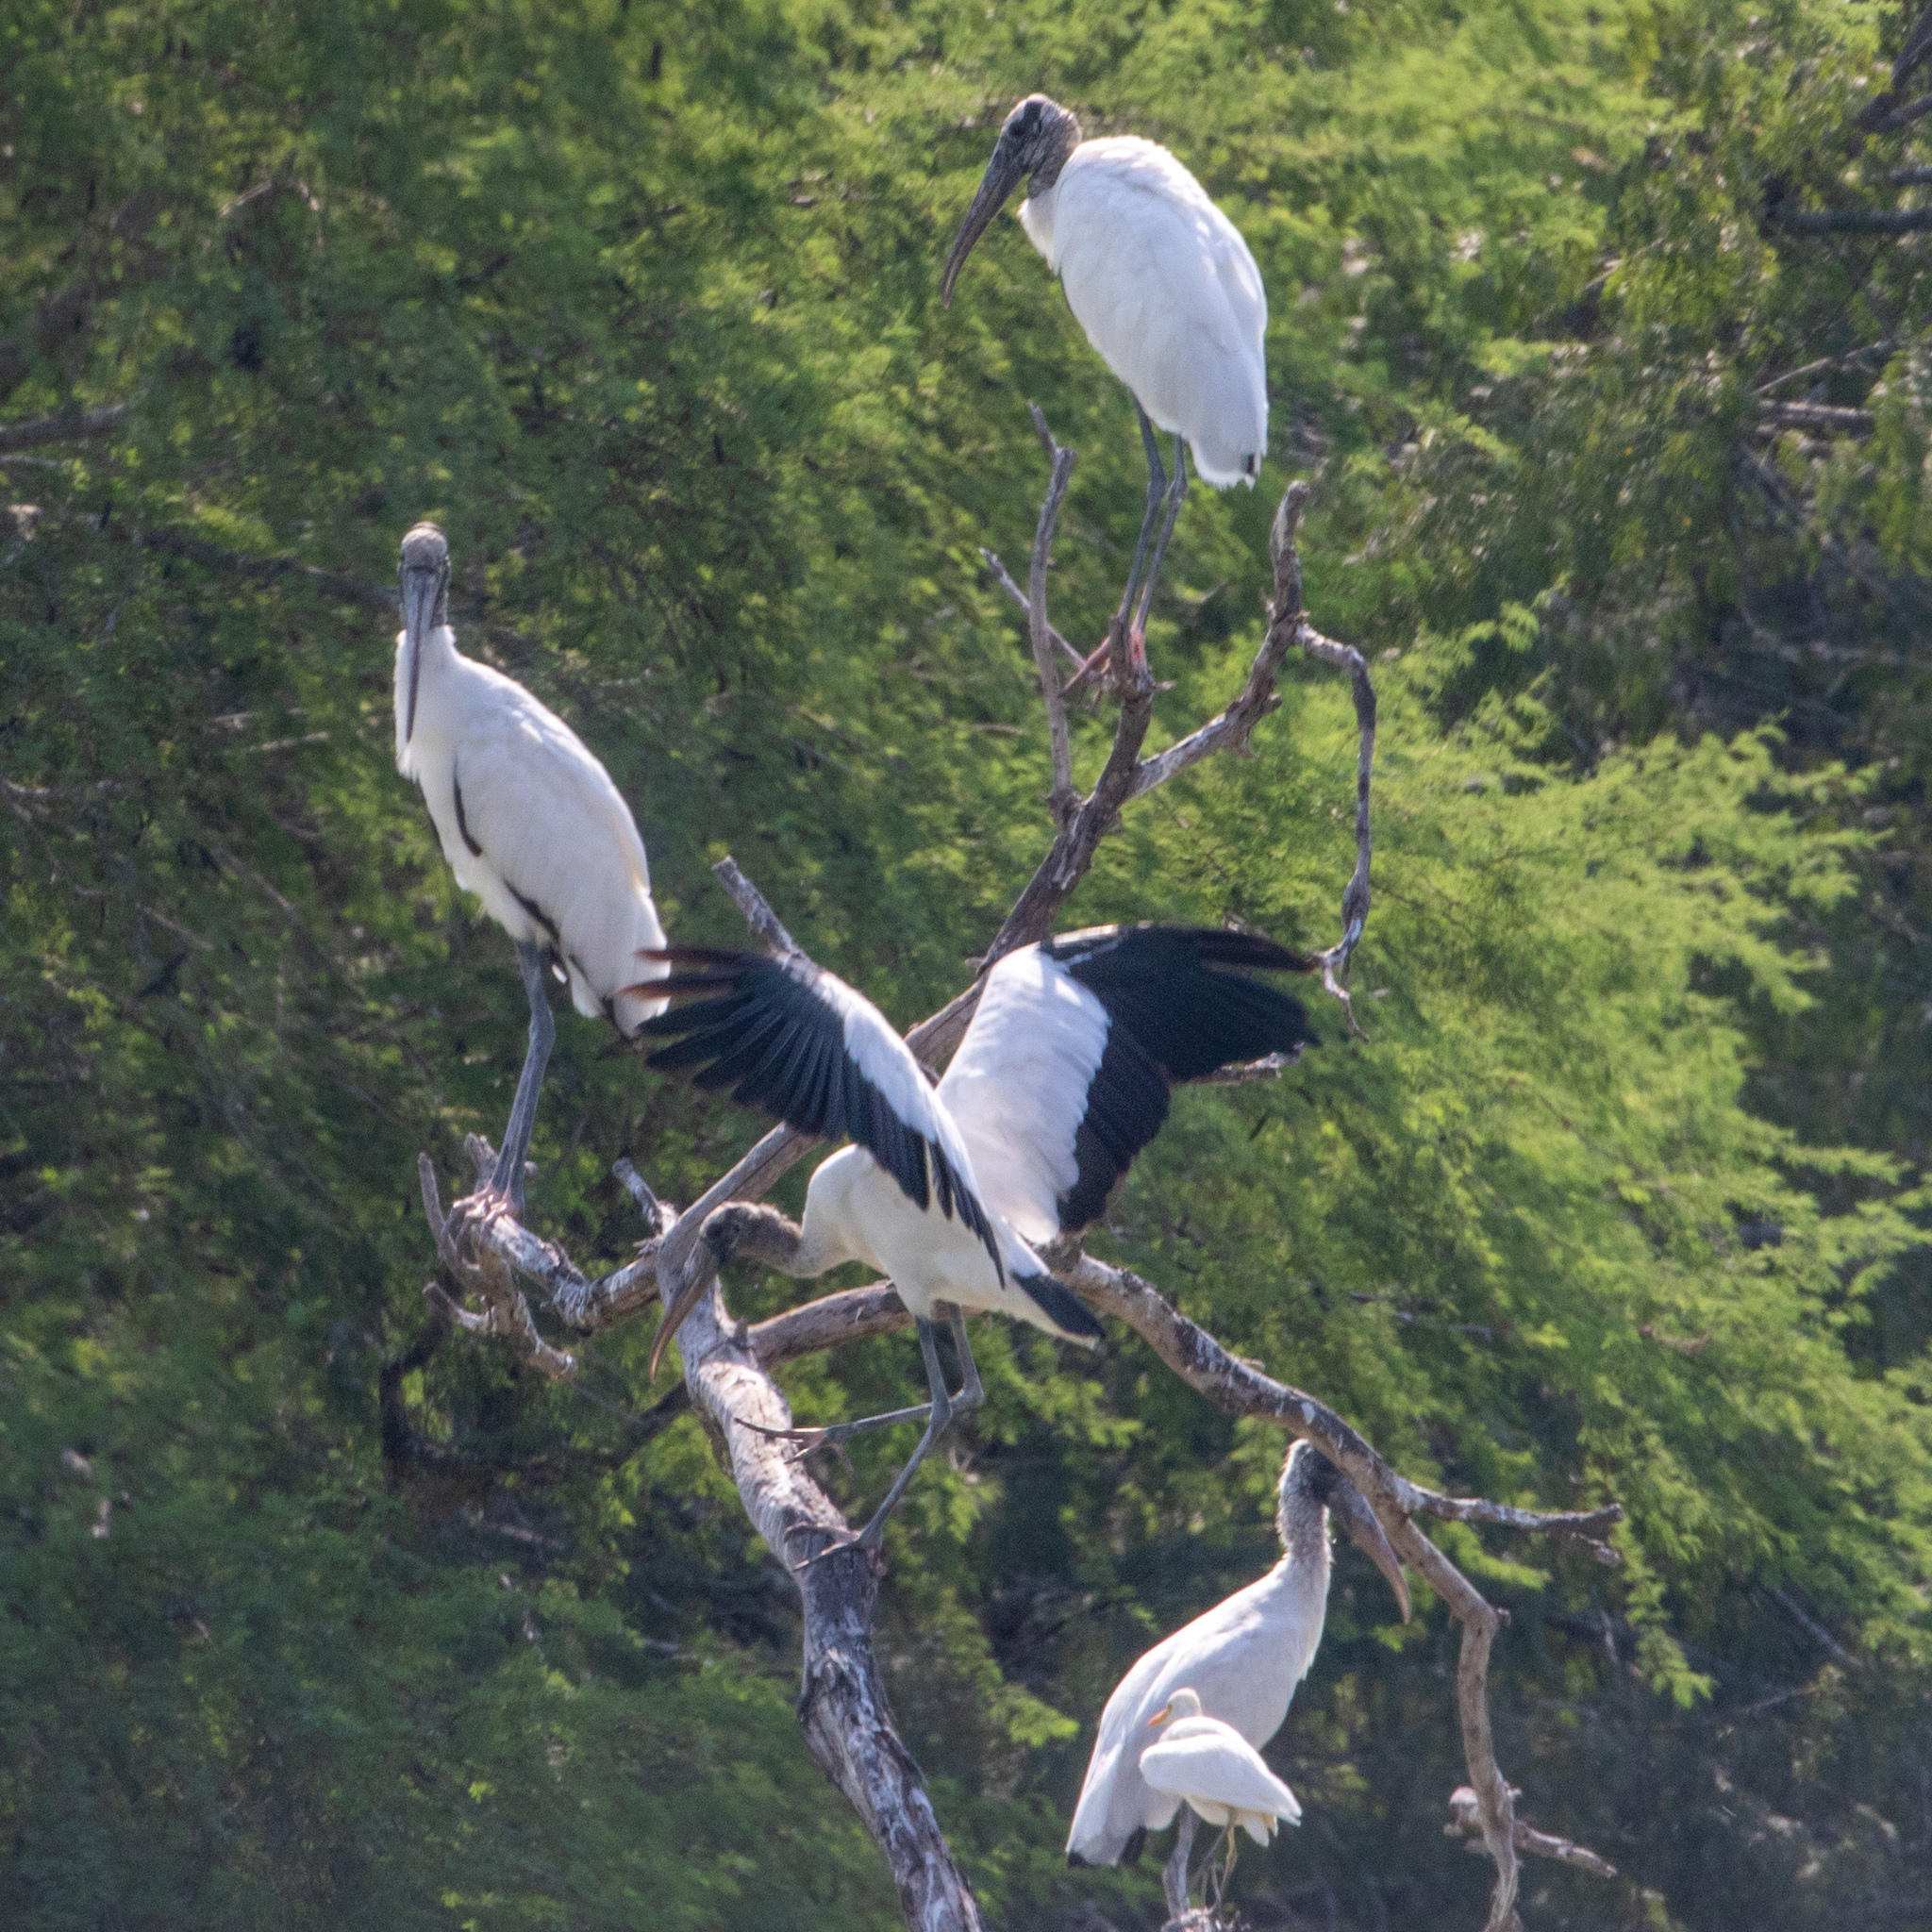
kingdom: Animalia
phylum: Chordata
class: Aves
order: Ciconiiformes
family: Ciconiidae
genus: Mycteria
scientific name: Mycteria americana
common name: Wood stork
